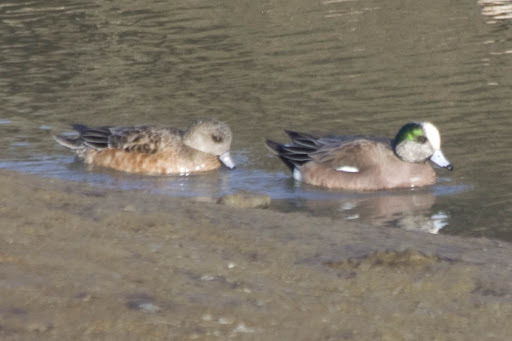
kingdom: Animalia
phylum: Chordata
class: Aves
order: Anseriformes
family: Anatidae
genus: Mareca
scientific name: Mareca americana
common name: American wigeon
